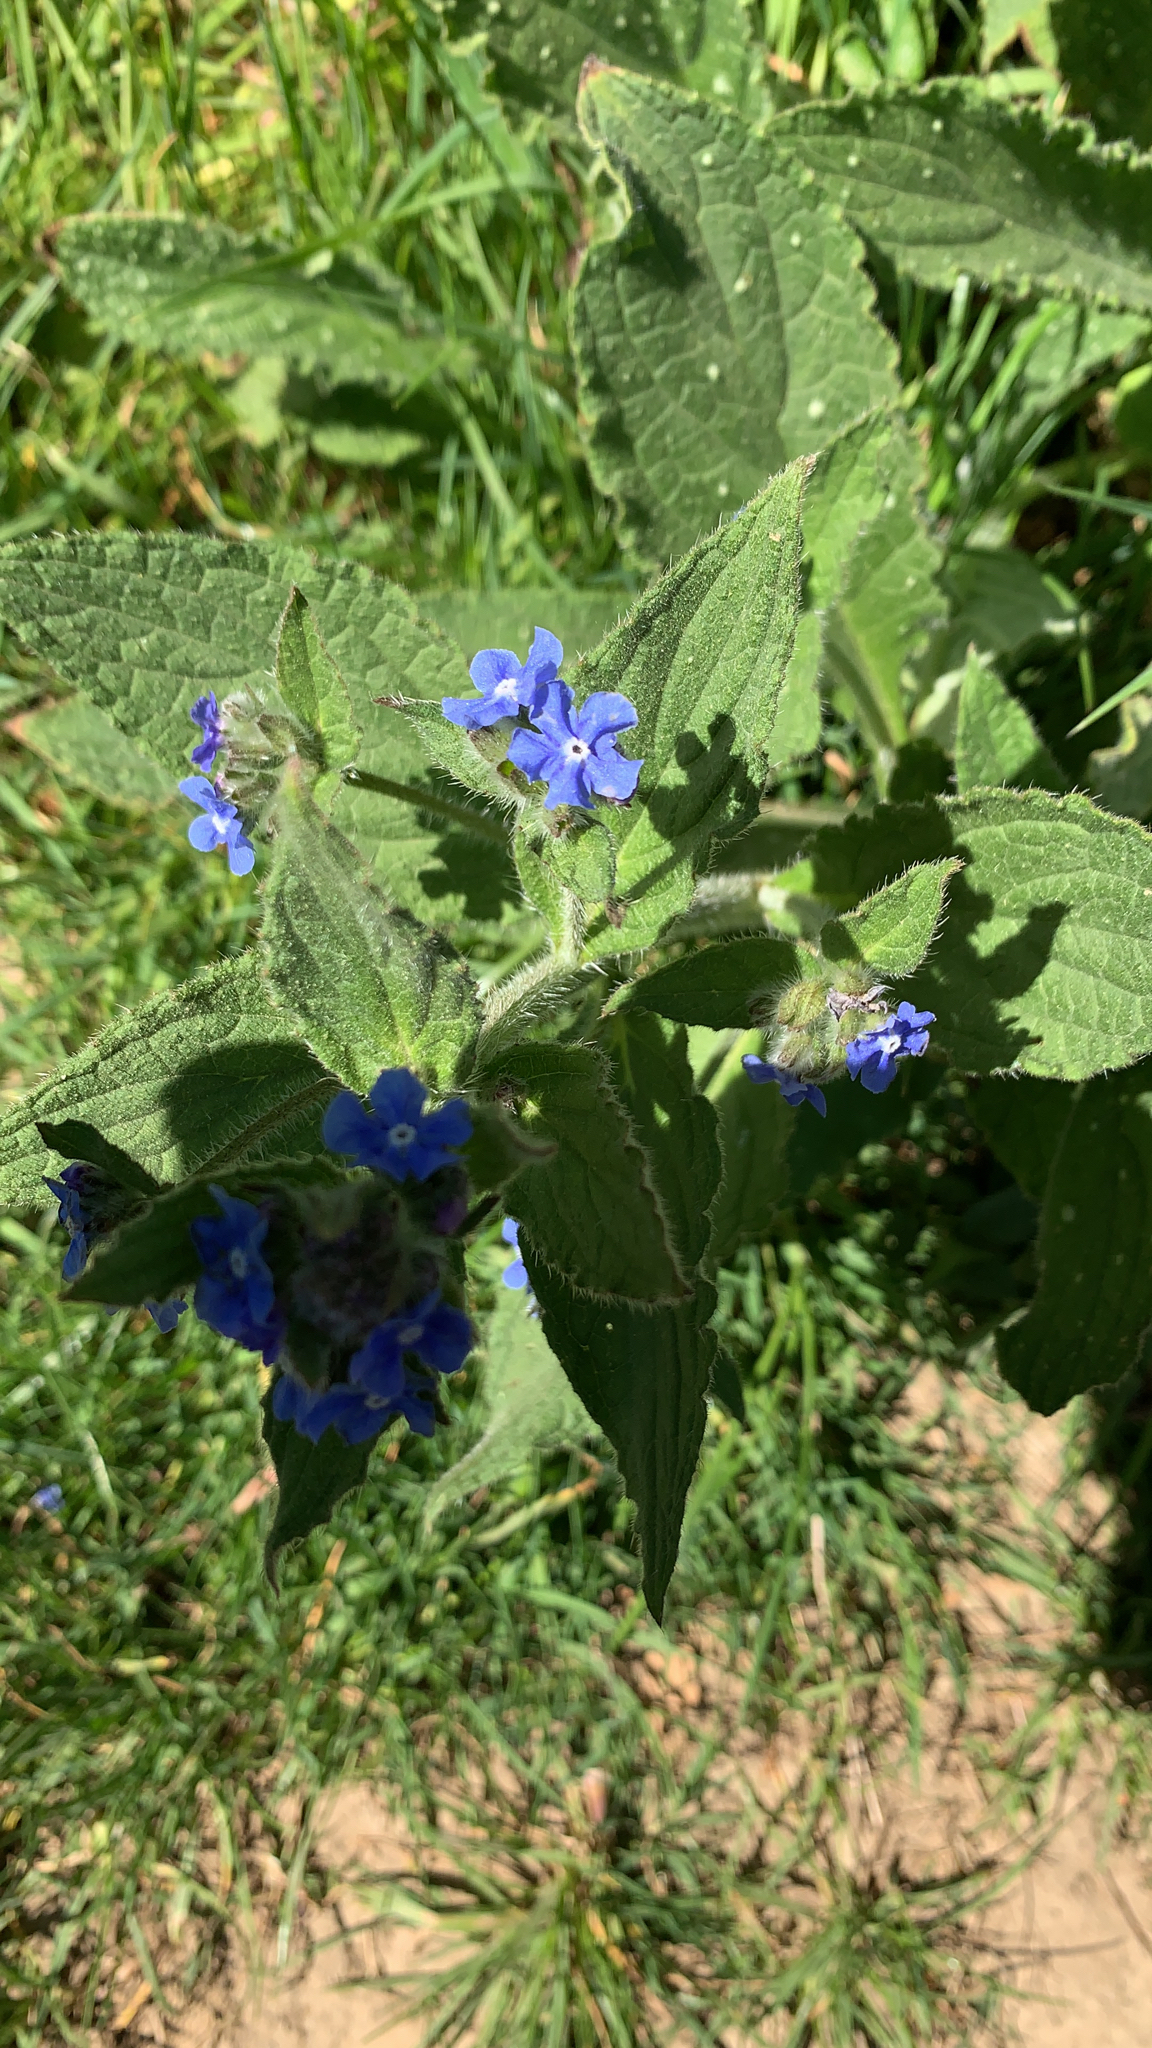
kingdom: Plantae
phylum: Tracheophyta
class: Magnoliopsida
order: Boraginales
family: Boraginaceae
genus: Pentaglottis
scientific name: Pentaglottis sempervirens
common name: Green alkanet
